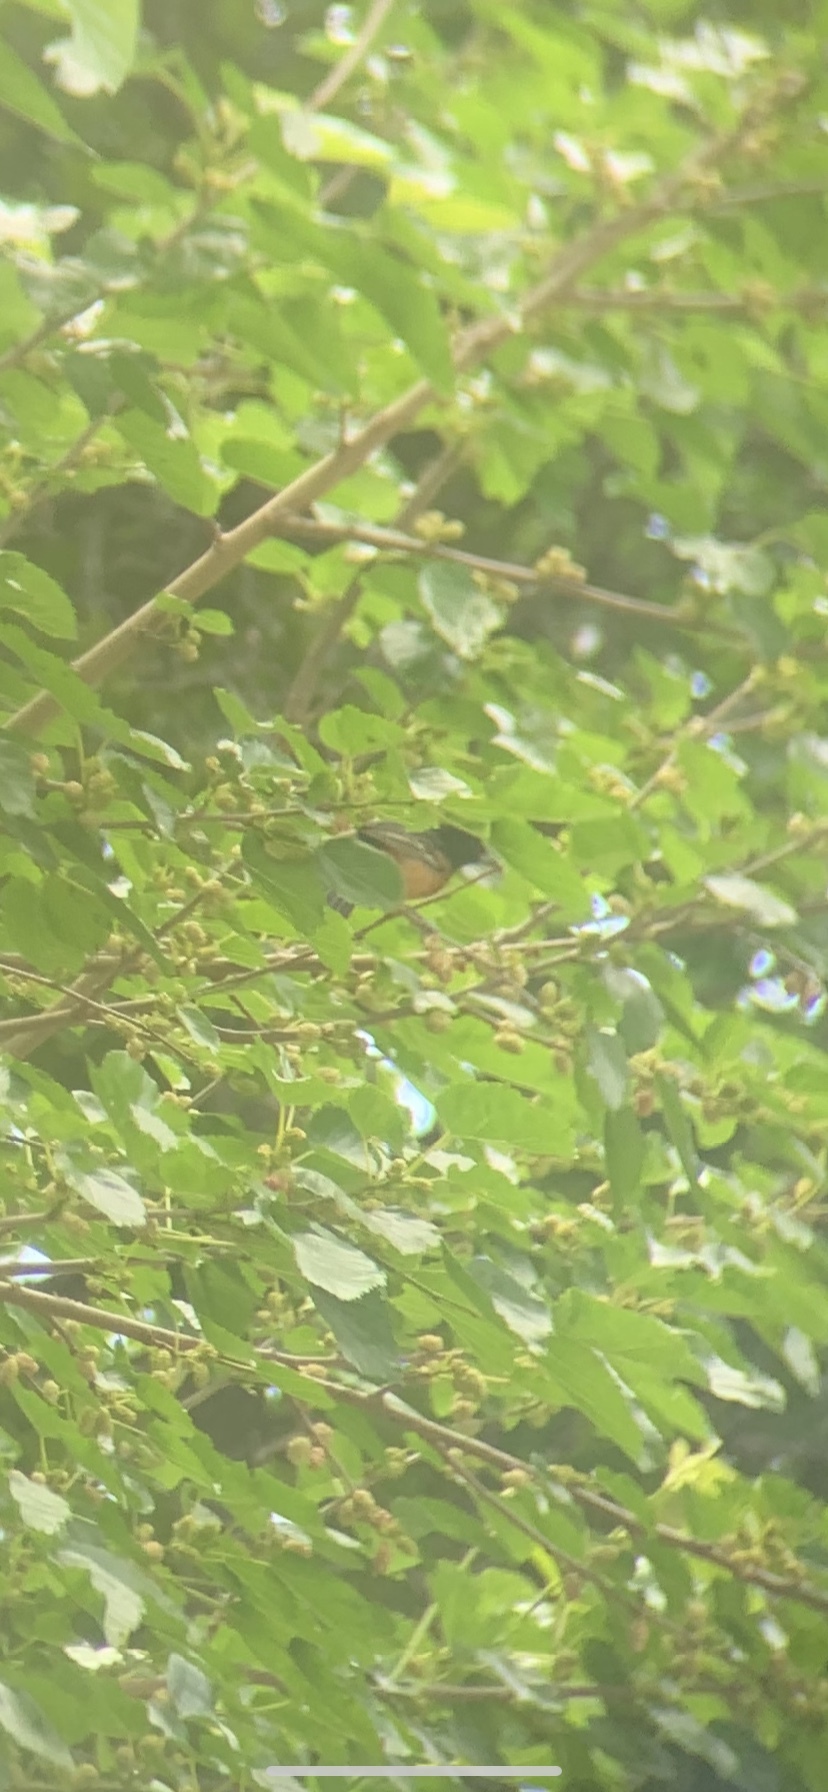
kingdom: Animalia
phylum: Chordata
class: Aves
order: Passeriformes
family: Icteridae
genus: Icterus
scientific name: Icterus spurius
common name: Orchard oriole
